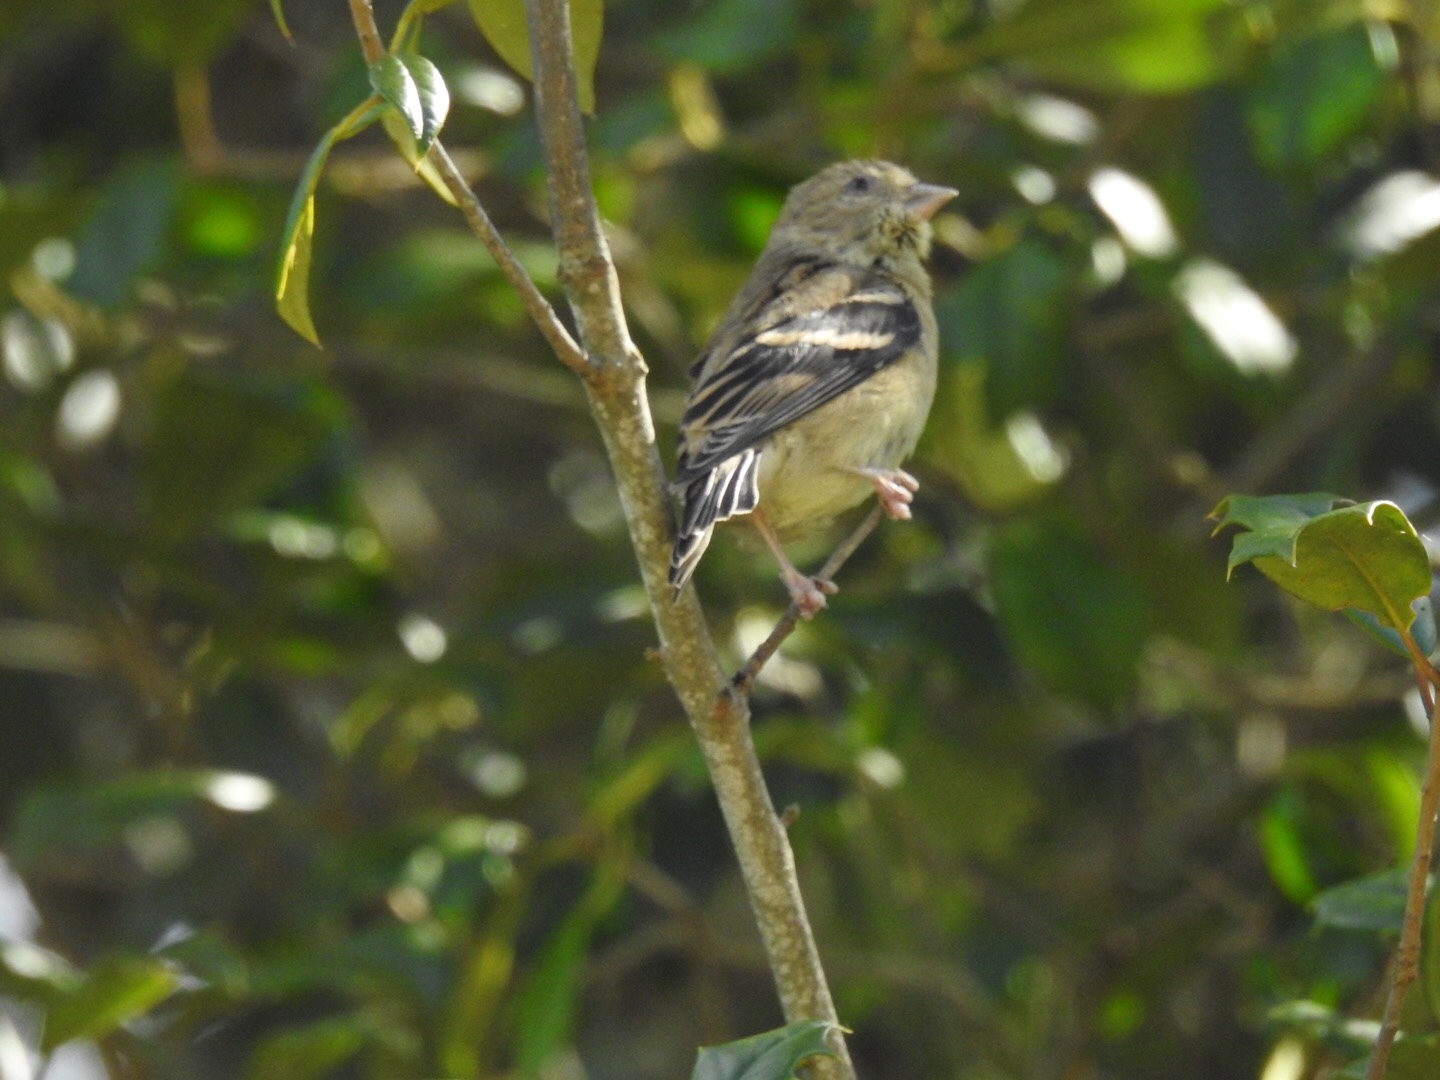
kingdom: Animalia
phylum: Chordata
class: Aves
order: Passeriformes
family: Fringillidae
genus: Spinus
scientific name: Spinus tristis
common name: American goldfinch
